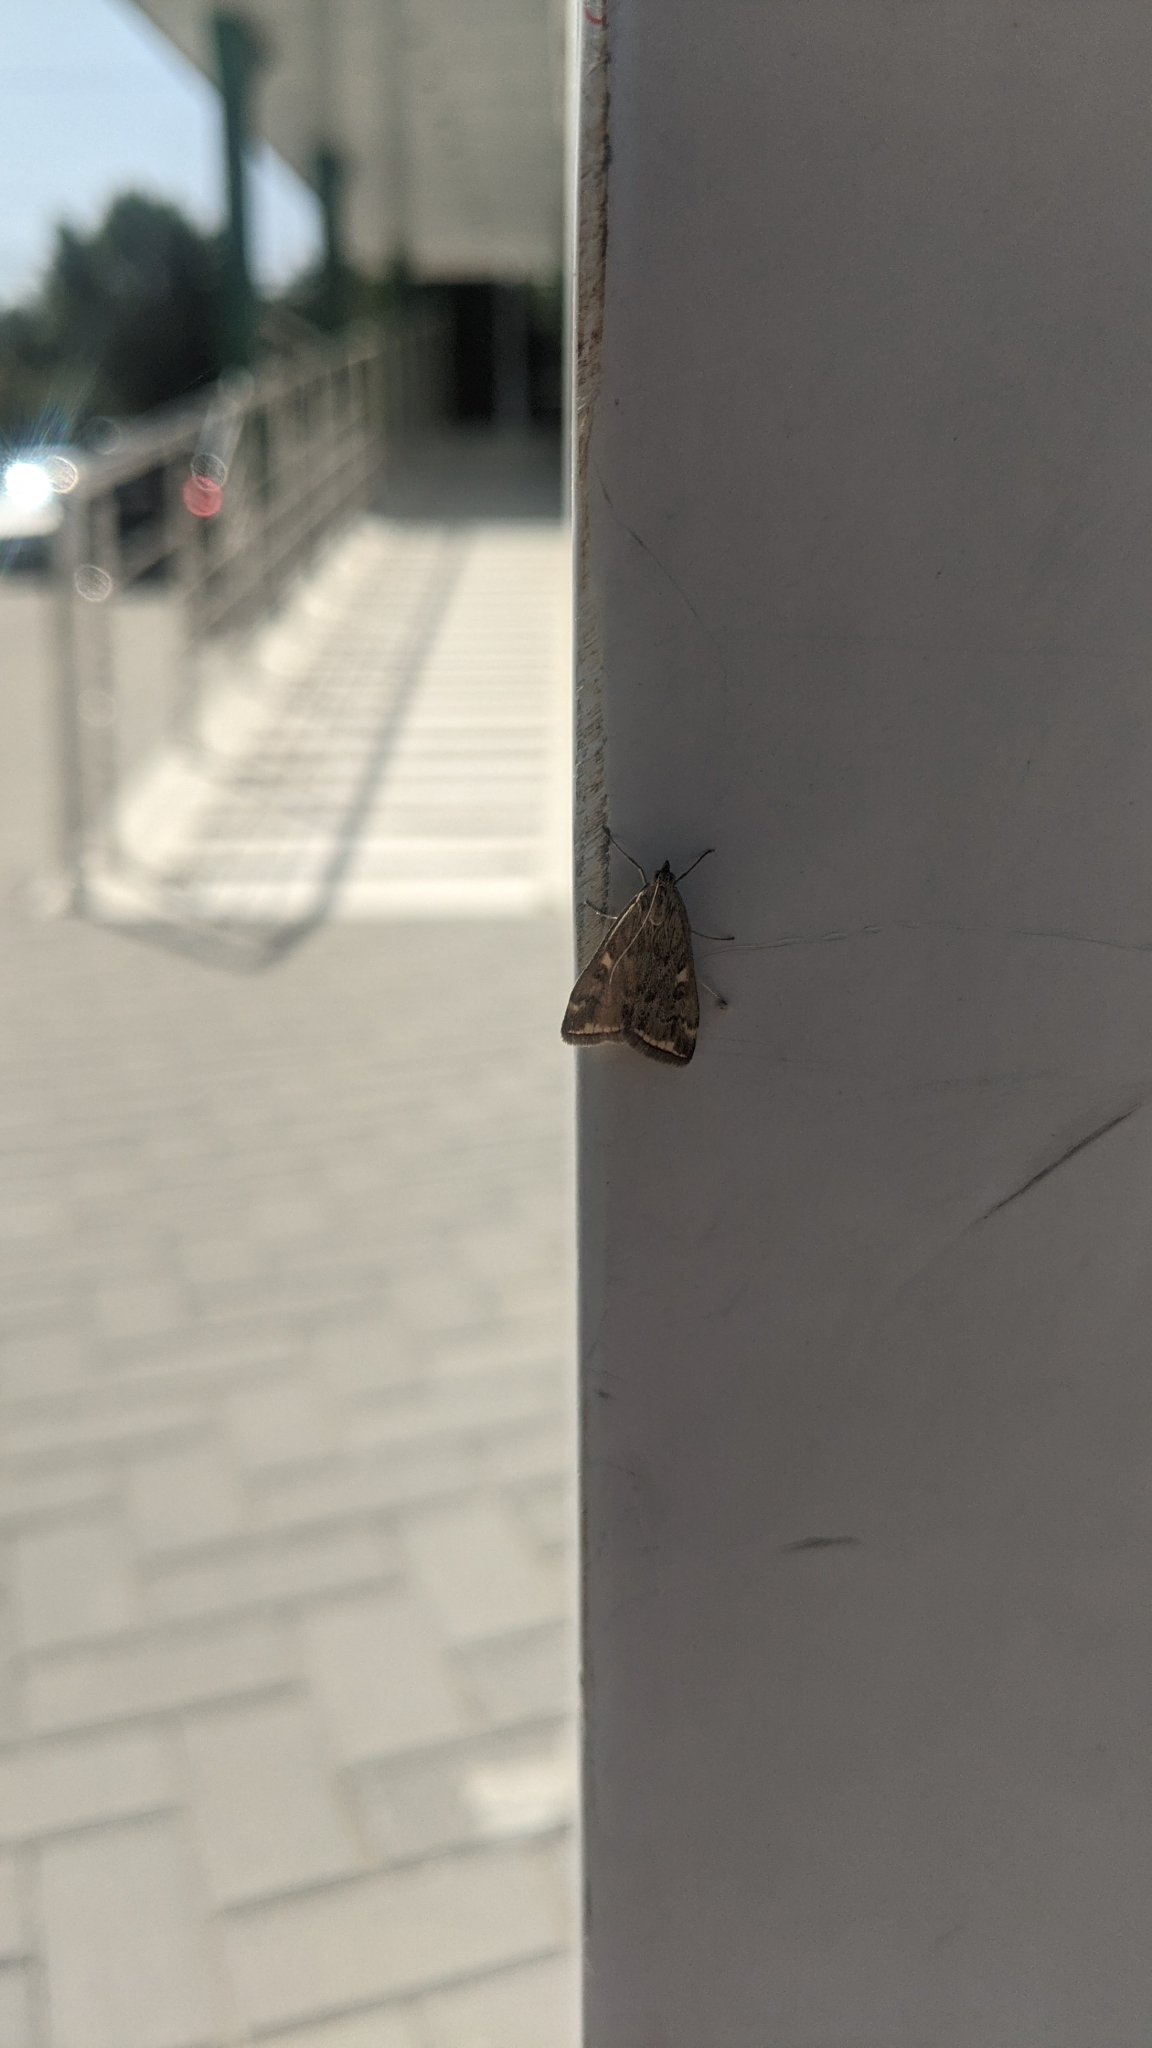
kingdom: Animalia
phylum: Arthropoda
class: Insecta
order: Lepidoptera
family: Crambidae
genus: Loxostege
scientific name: Loxostege sticticalis
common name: Crambid moth
